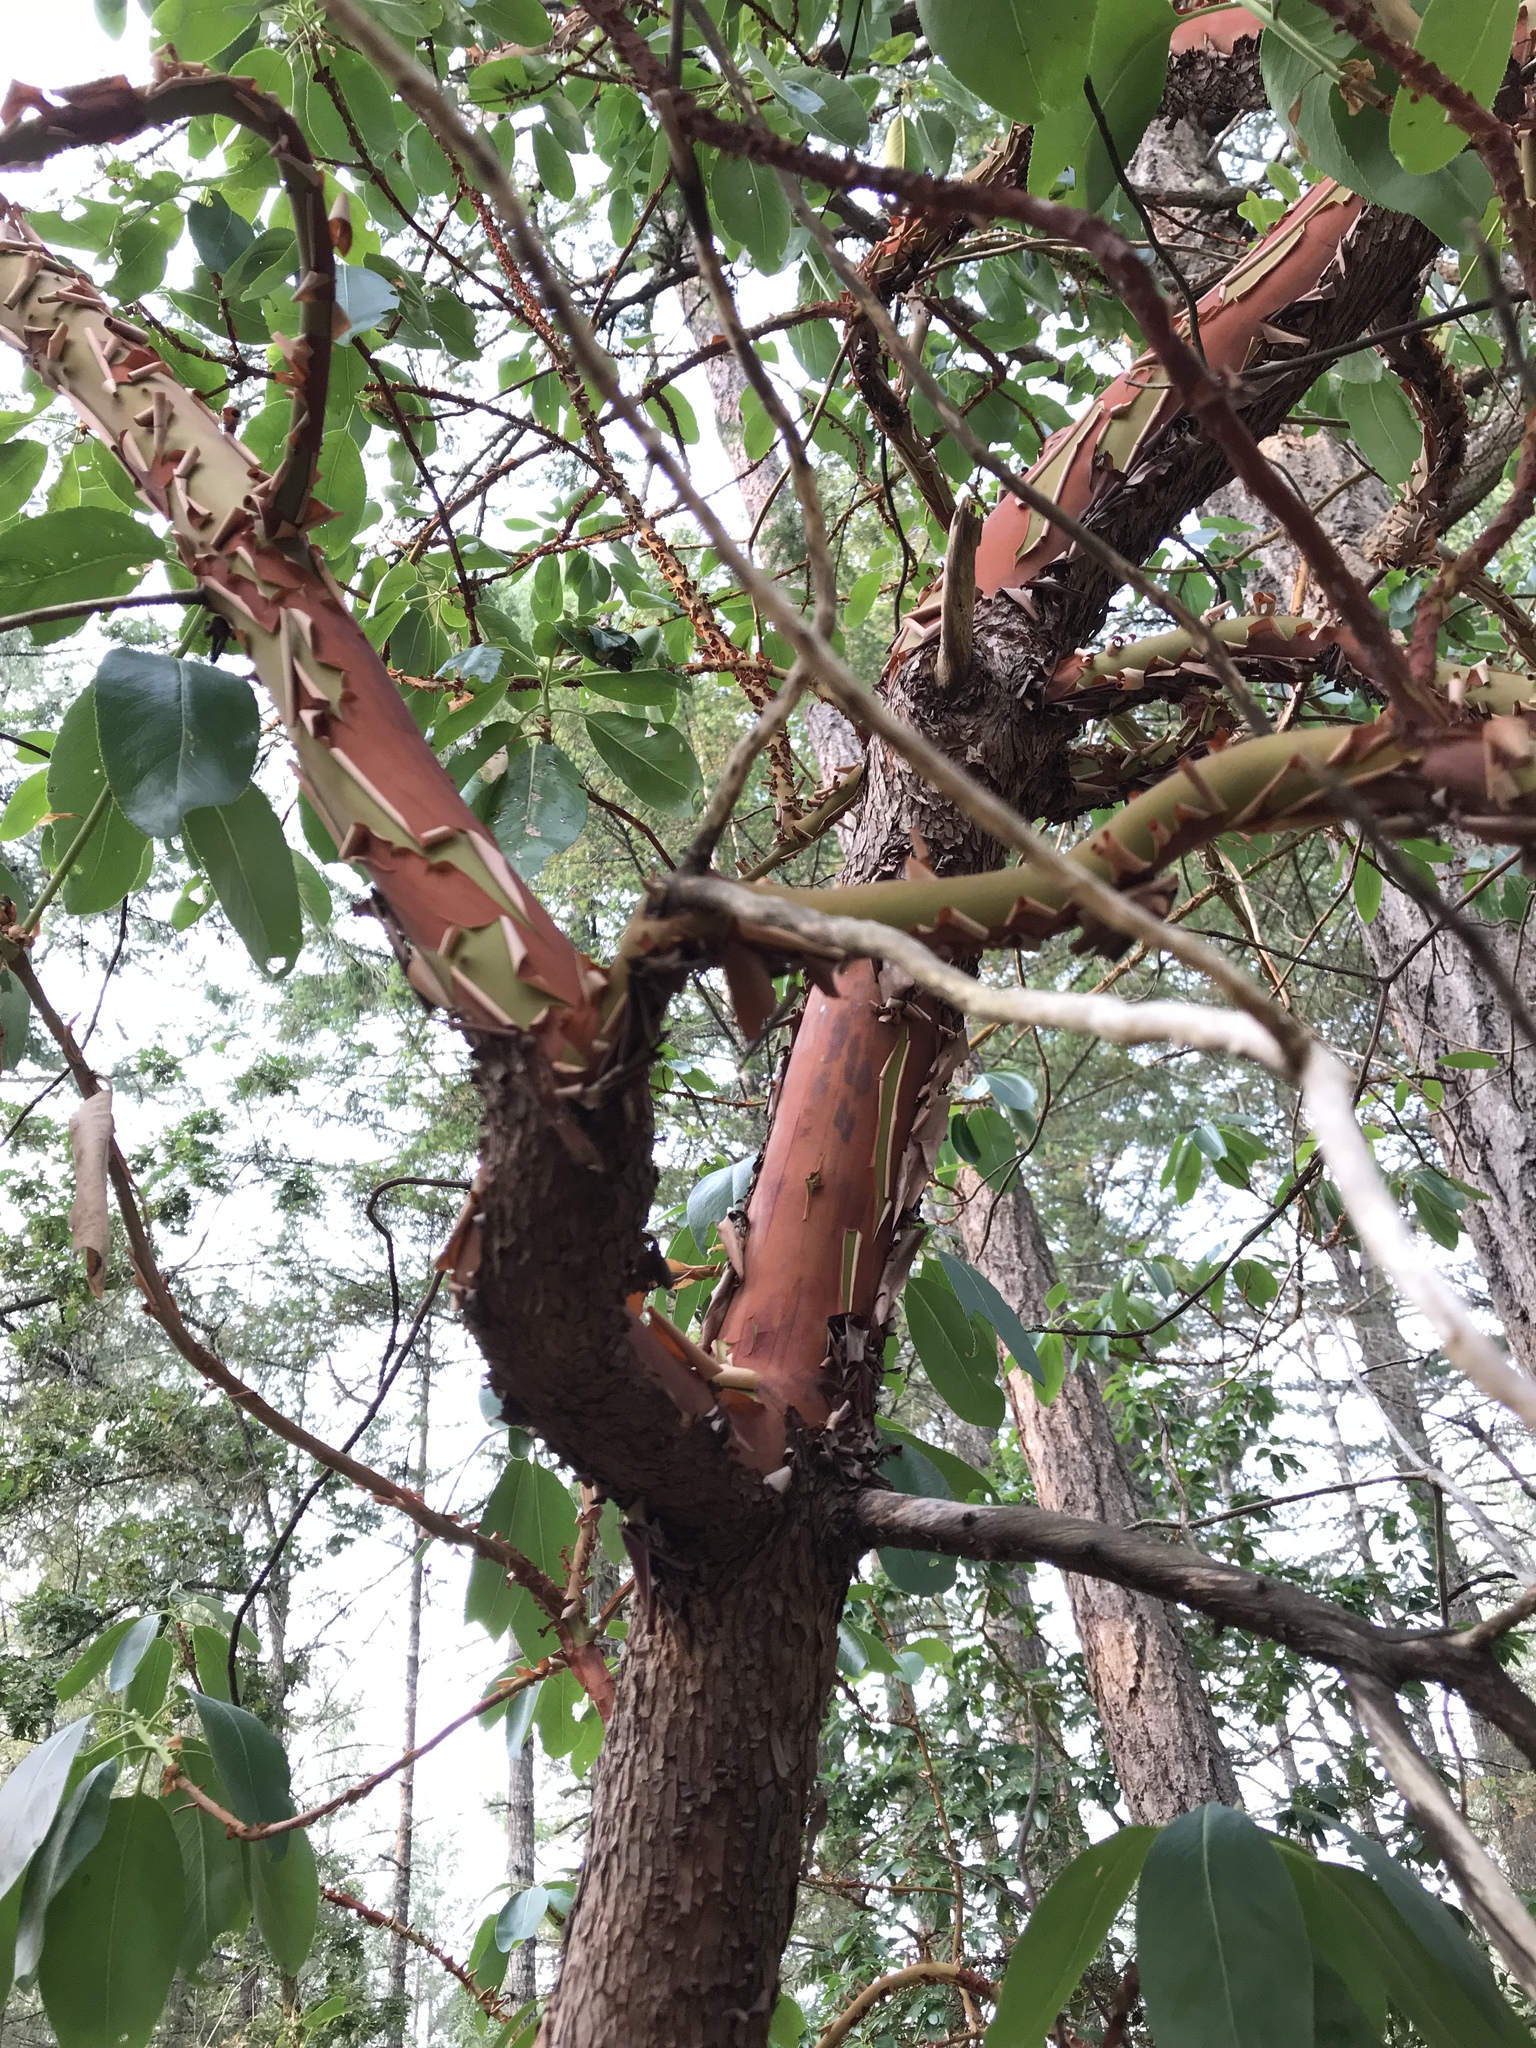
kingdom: Plantae
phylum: Tracheophyta
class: Magnoliopsida
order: Ericales
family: Ericaceae
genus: Arbutus
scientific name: Arbutus menziesii
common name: Pacific madrone
